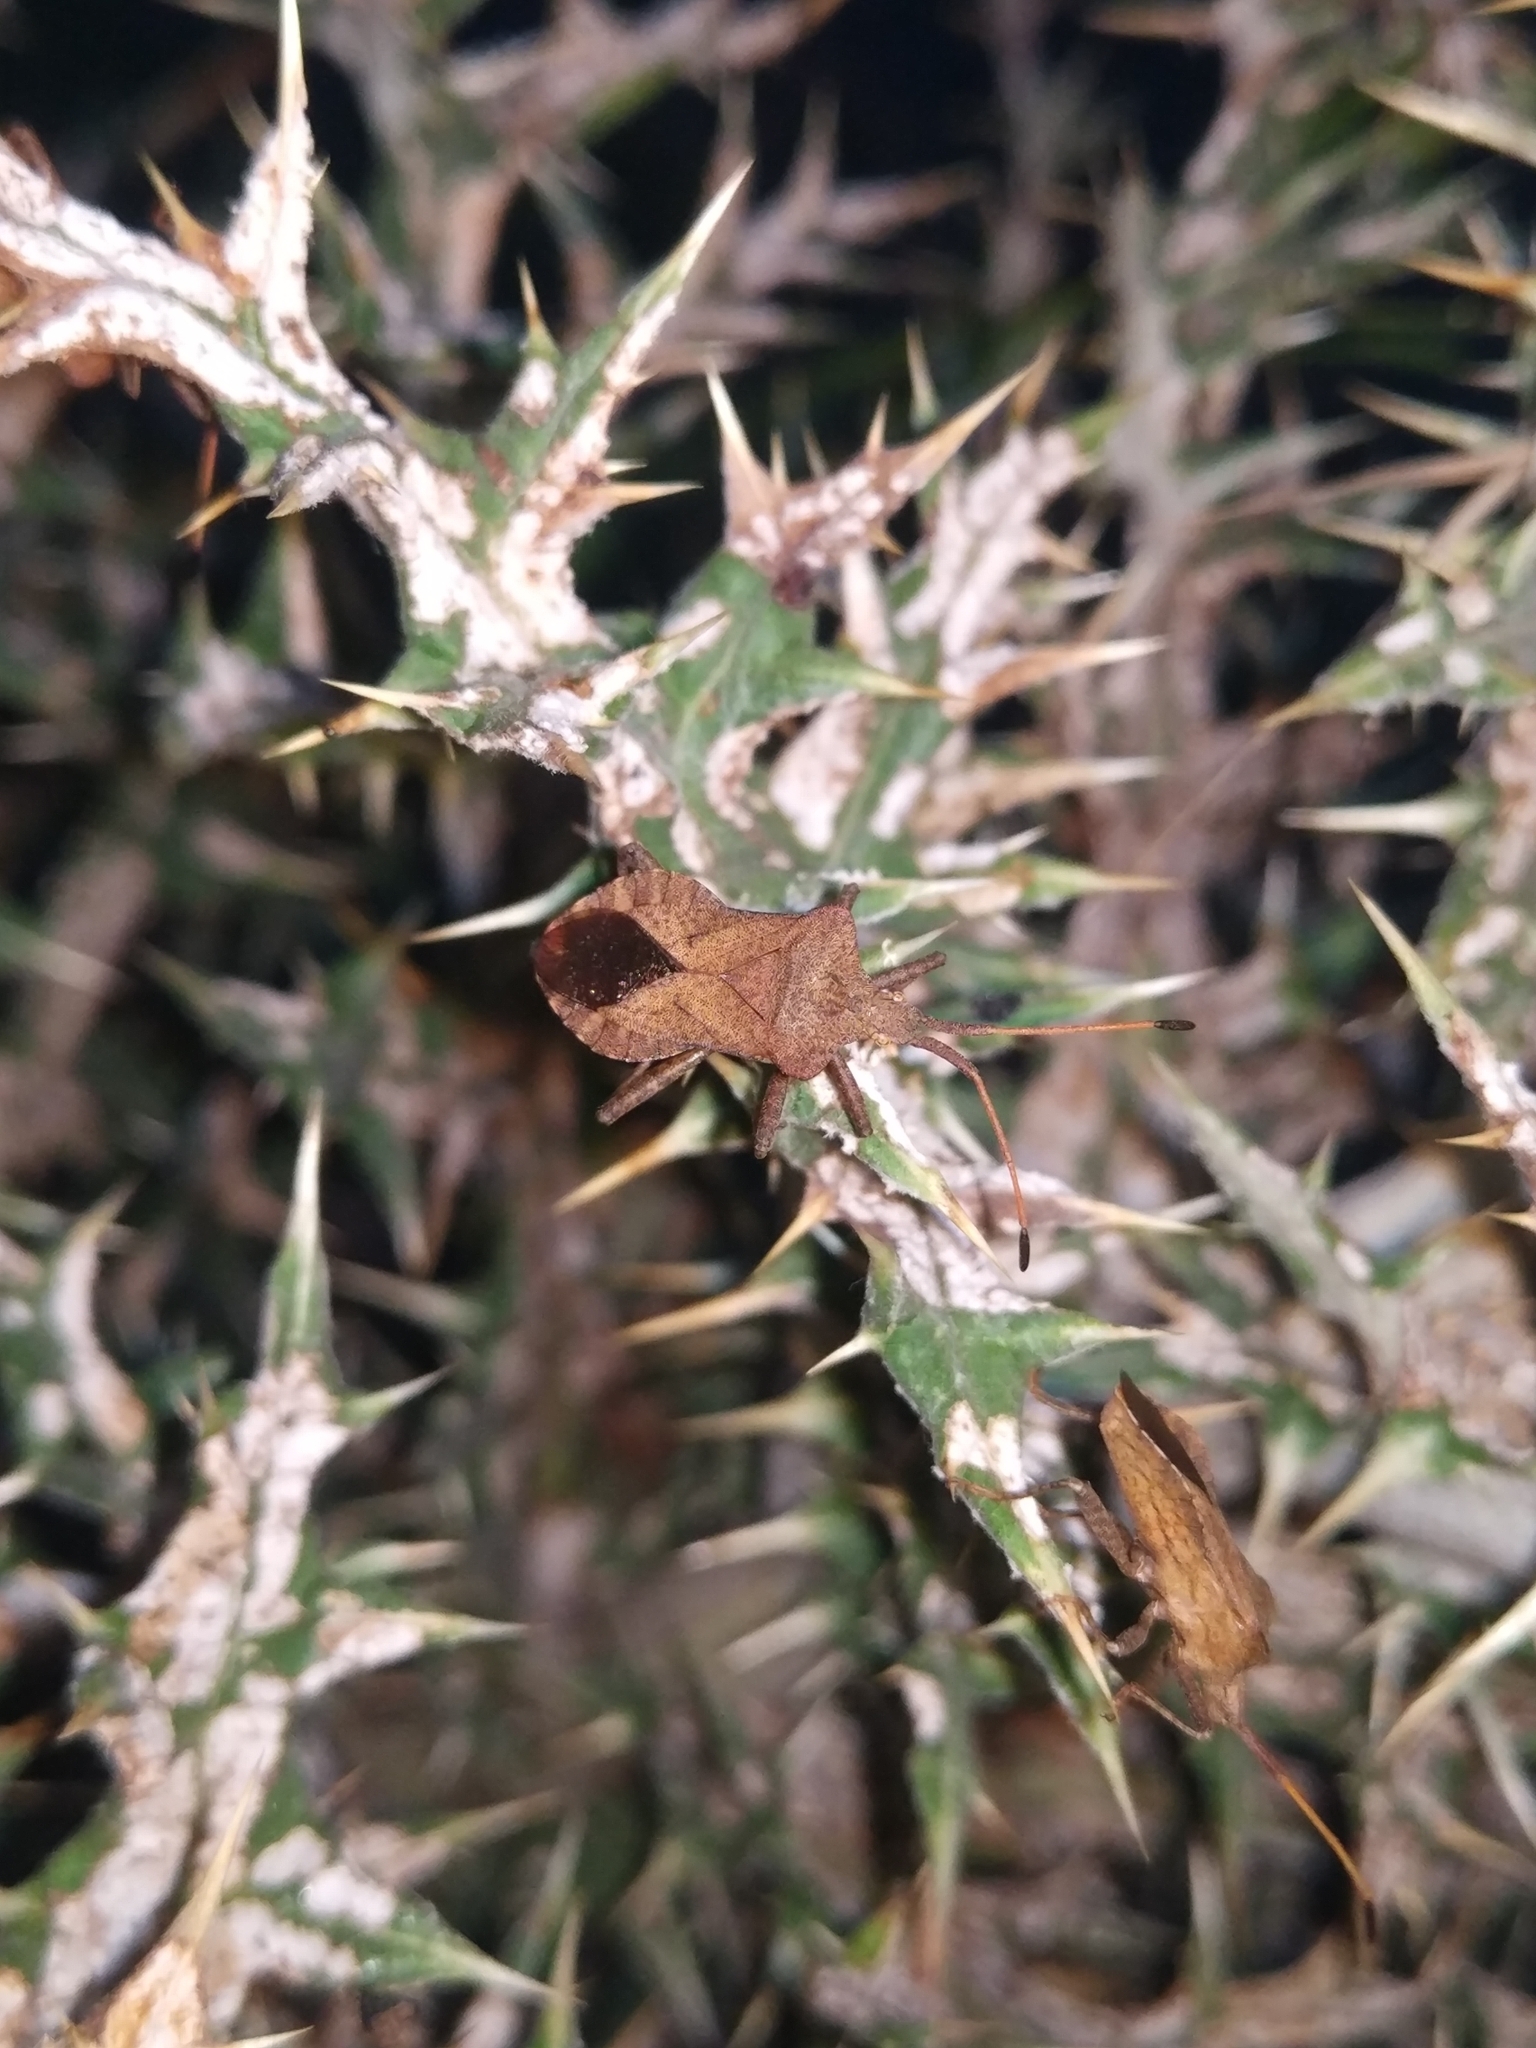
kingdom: Animalia
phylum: Arthropoda
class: Insecta
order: Hemiptera
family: Coreidae
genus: Coreus
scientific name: Coreus marginatus
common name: Dock bug
